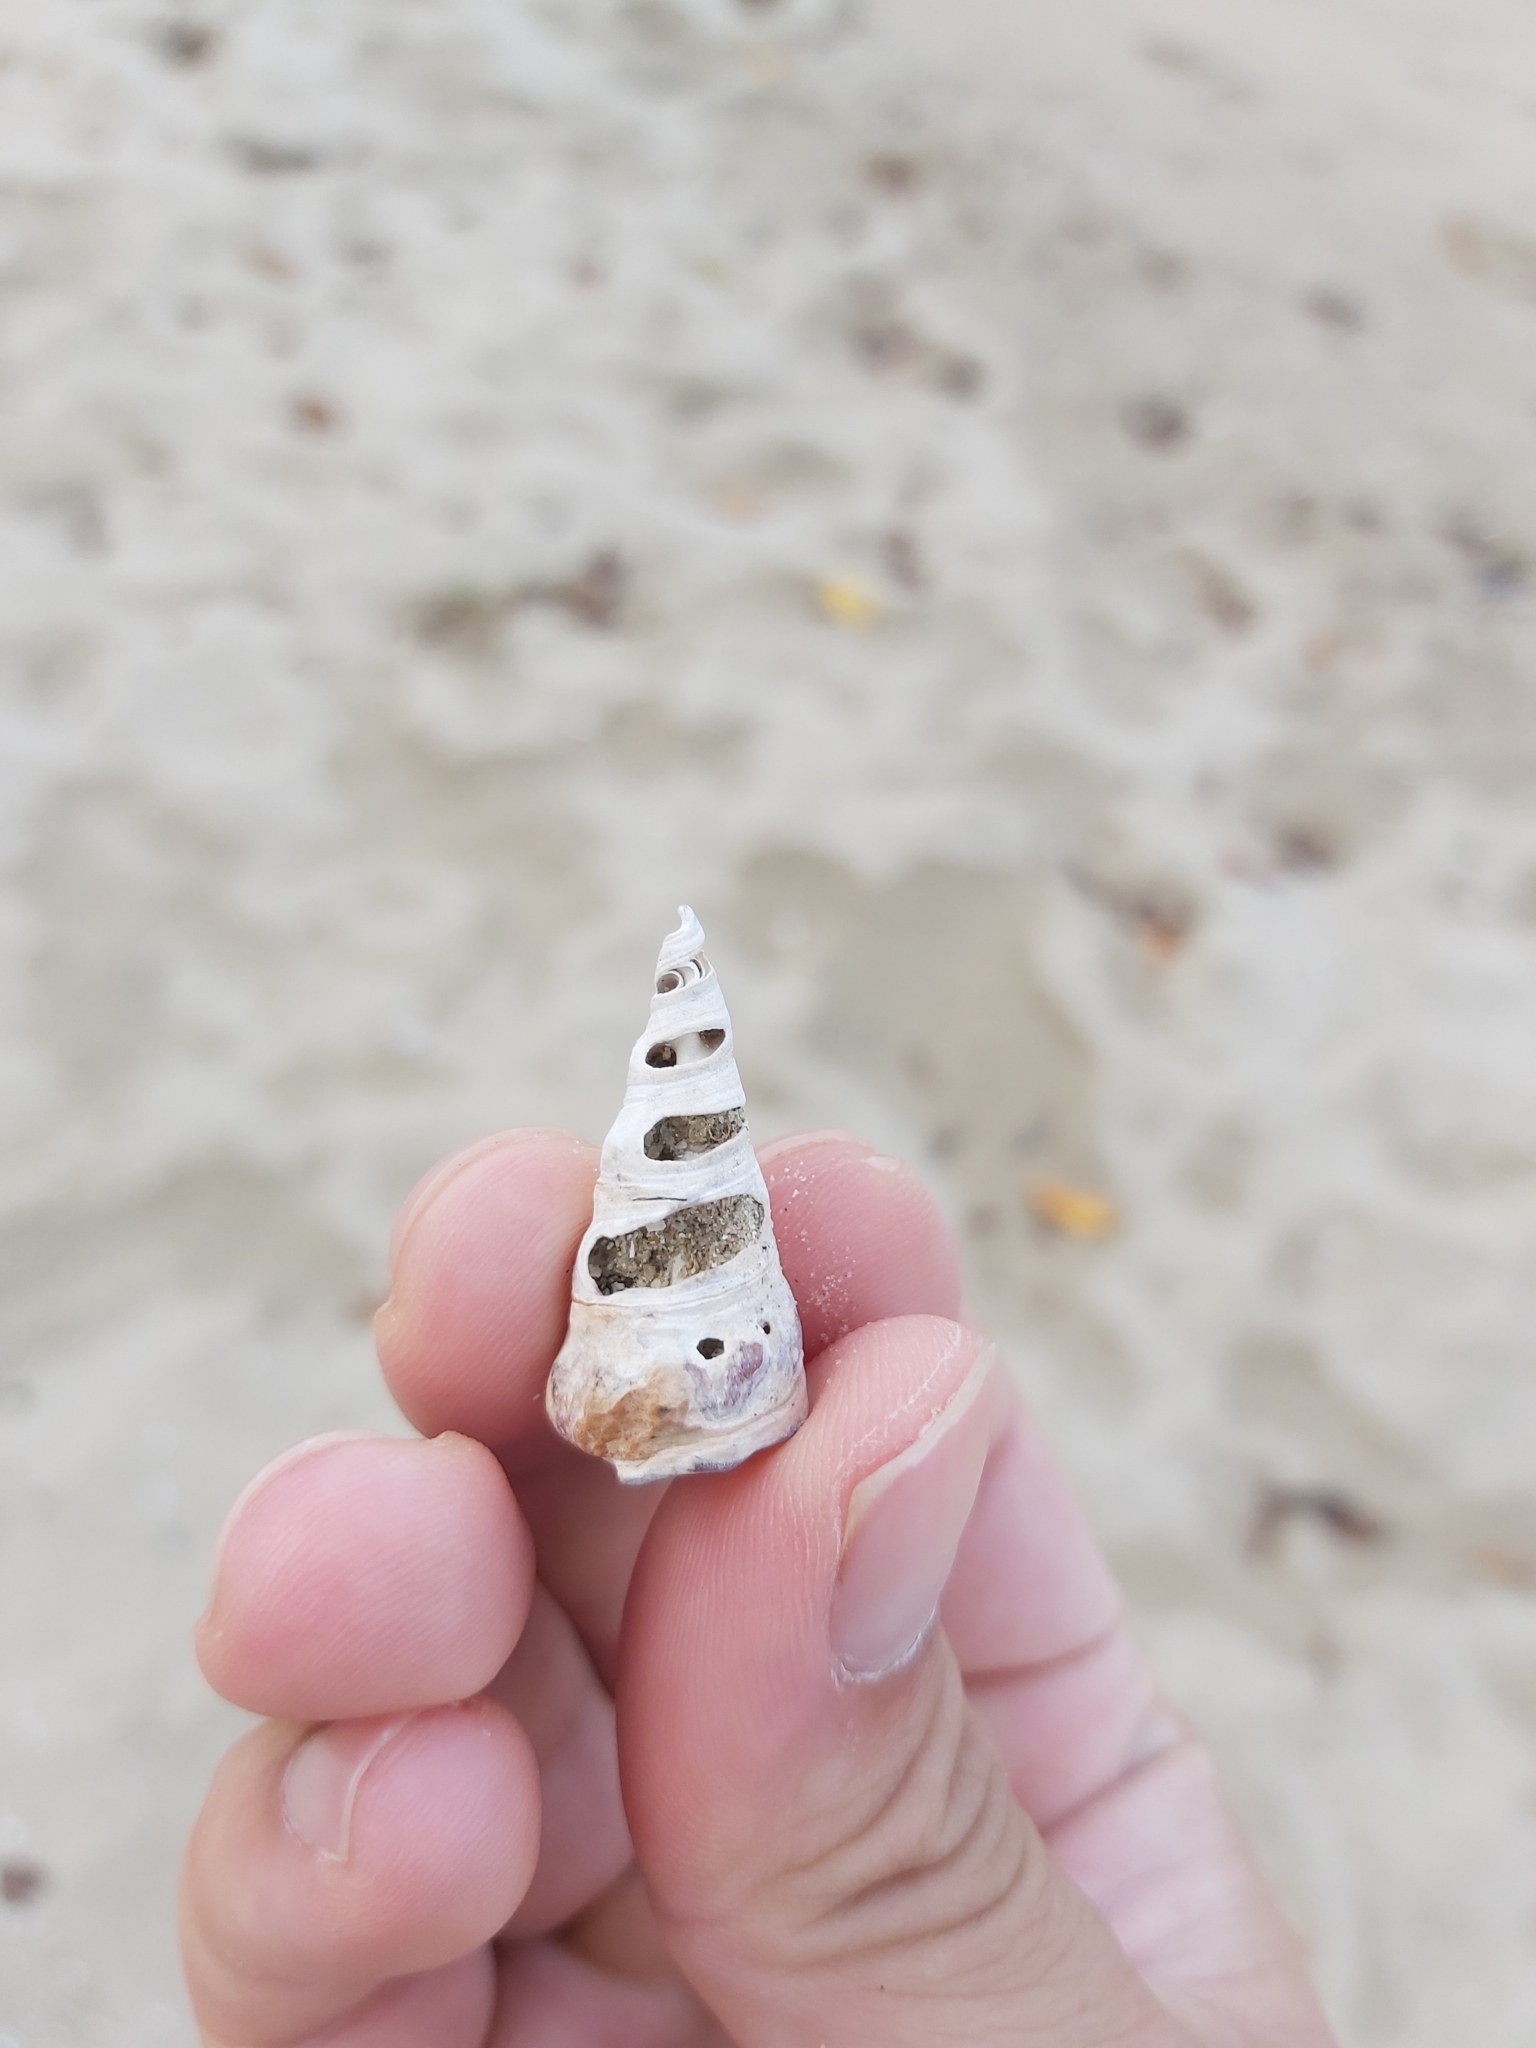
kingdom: Animalia
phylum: Mollusca
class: Gastropoda
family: Batillariidae
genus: Pyrazus
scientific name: Pyrazus ebeninus
